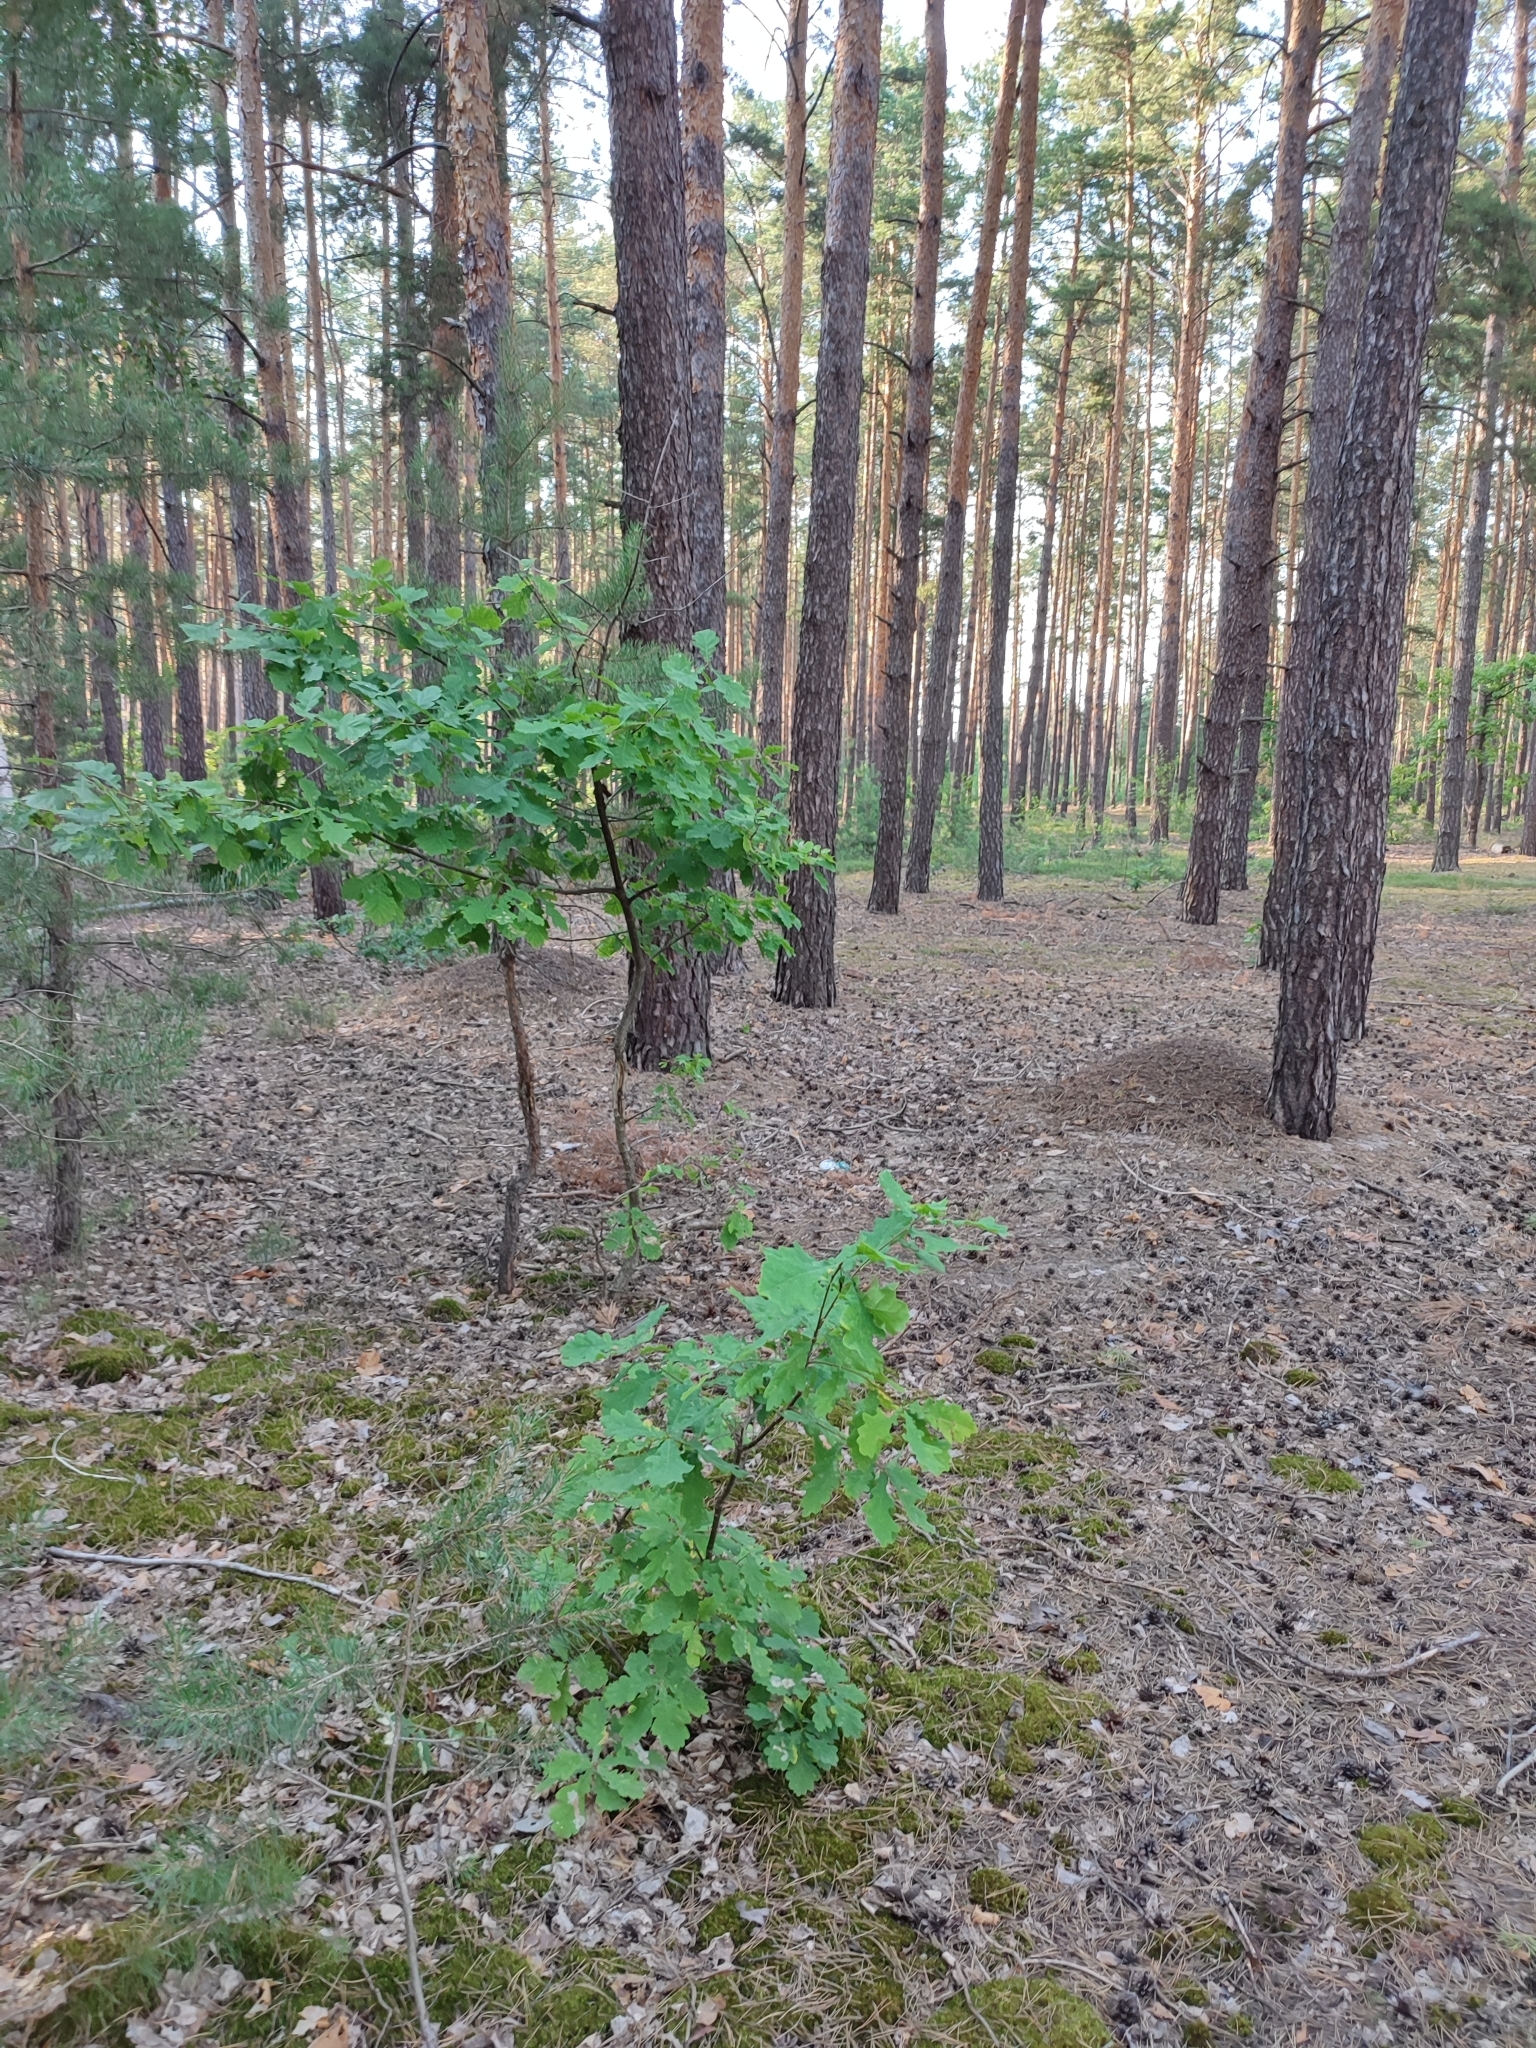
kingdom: Plantae
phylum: Tracheophyta
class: Magnoliopsida
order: Fagales
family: Fagaceae
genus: Quercus
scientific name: Quercus robur
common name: Pedunculate oak
